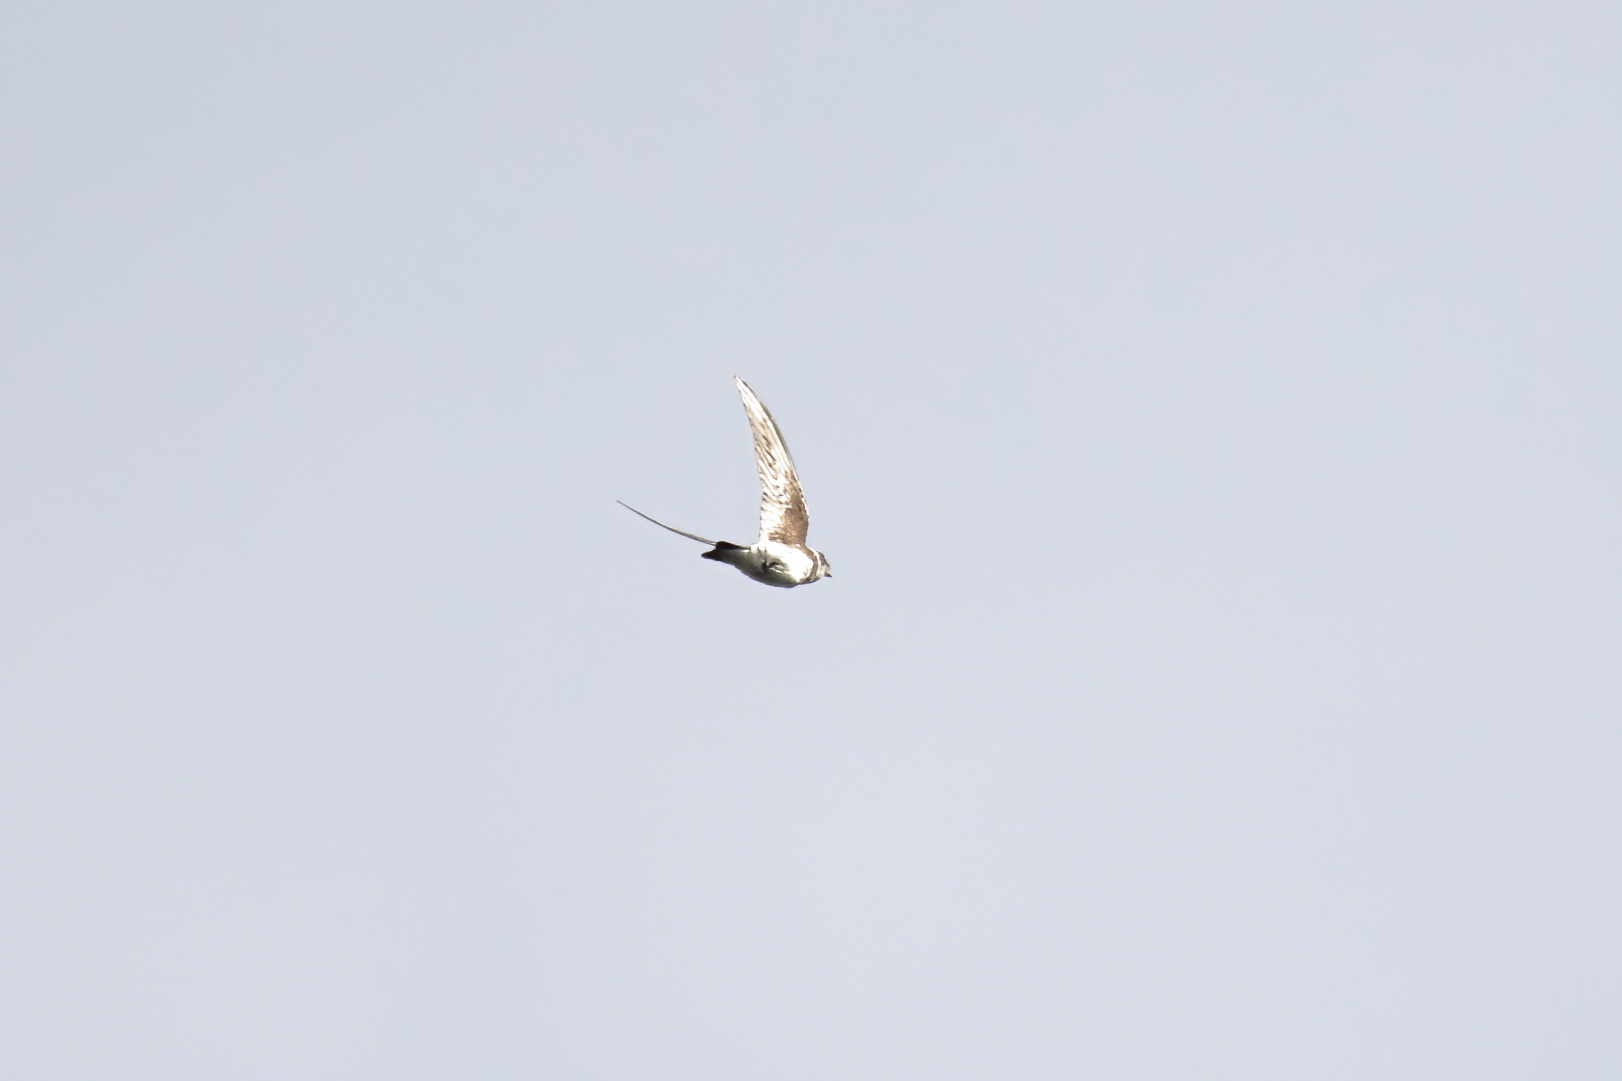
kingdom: Animalia
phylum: Chordata
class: Aves
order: Passeriformes
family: Hirundinidae
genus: Riparia
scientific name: Riparia riparia
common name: Sand martin
